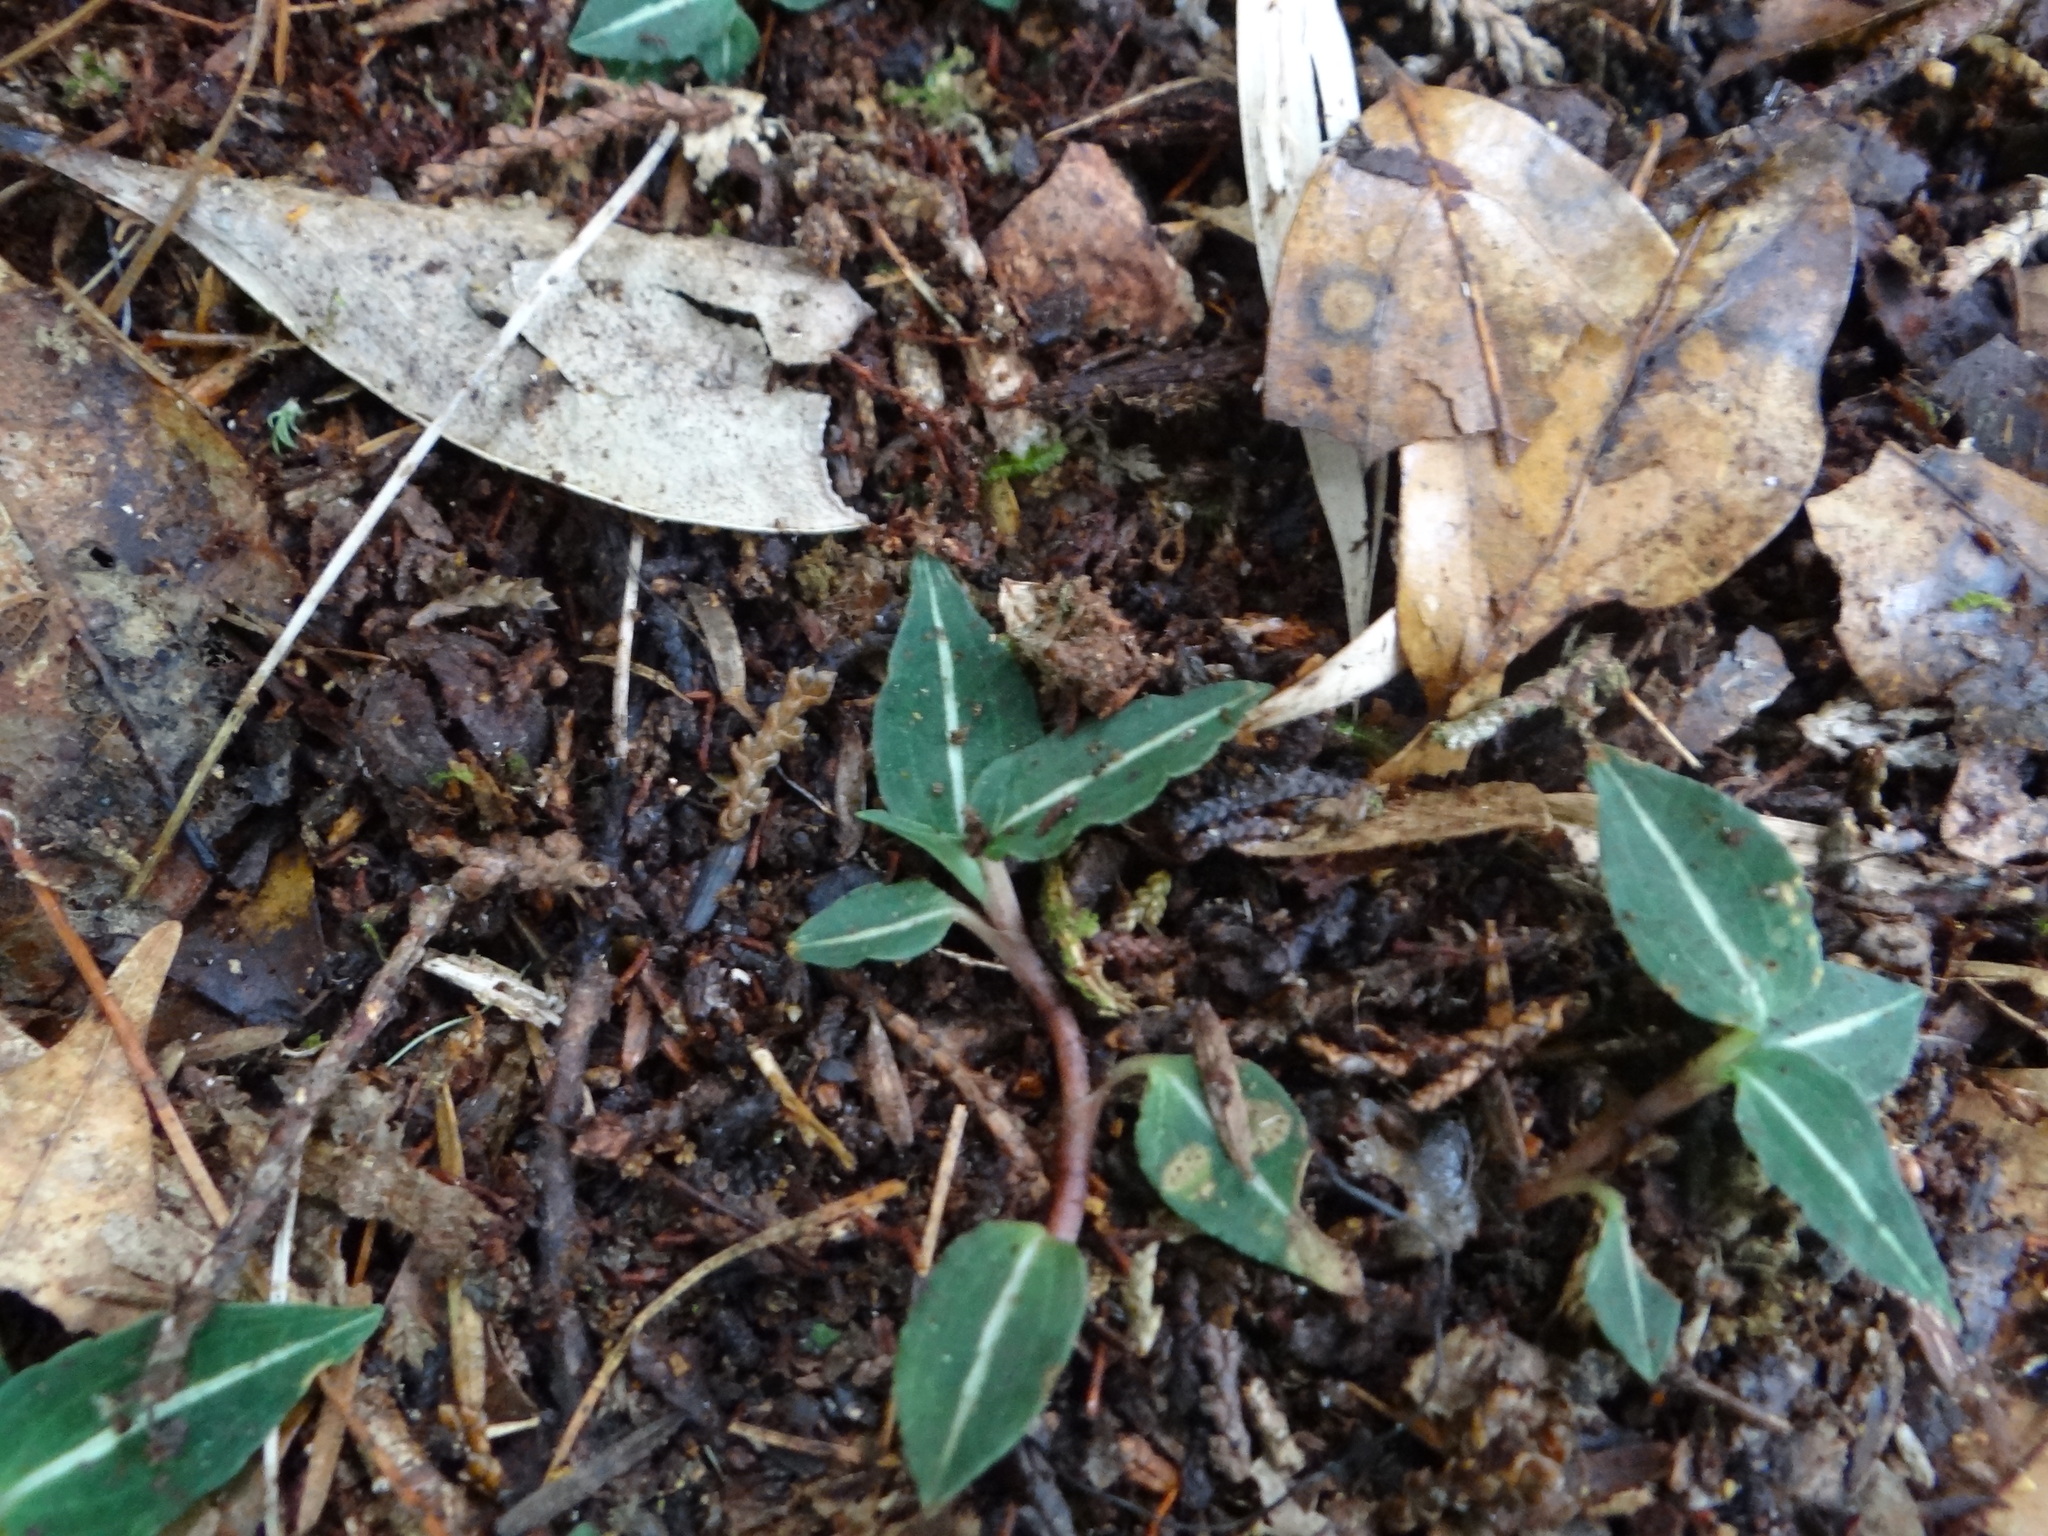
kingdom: Plantae
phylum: Tracheophyta
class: Liliopsida
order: Asparagales
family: Orchidaceae
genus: Goodyera
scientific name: Goodyera velutina
